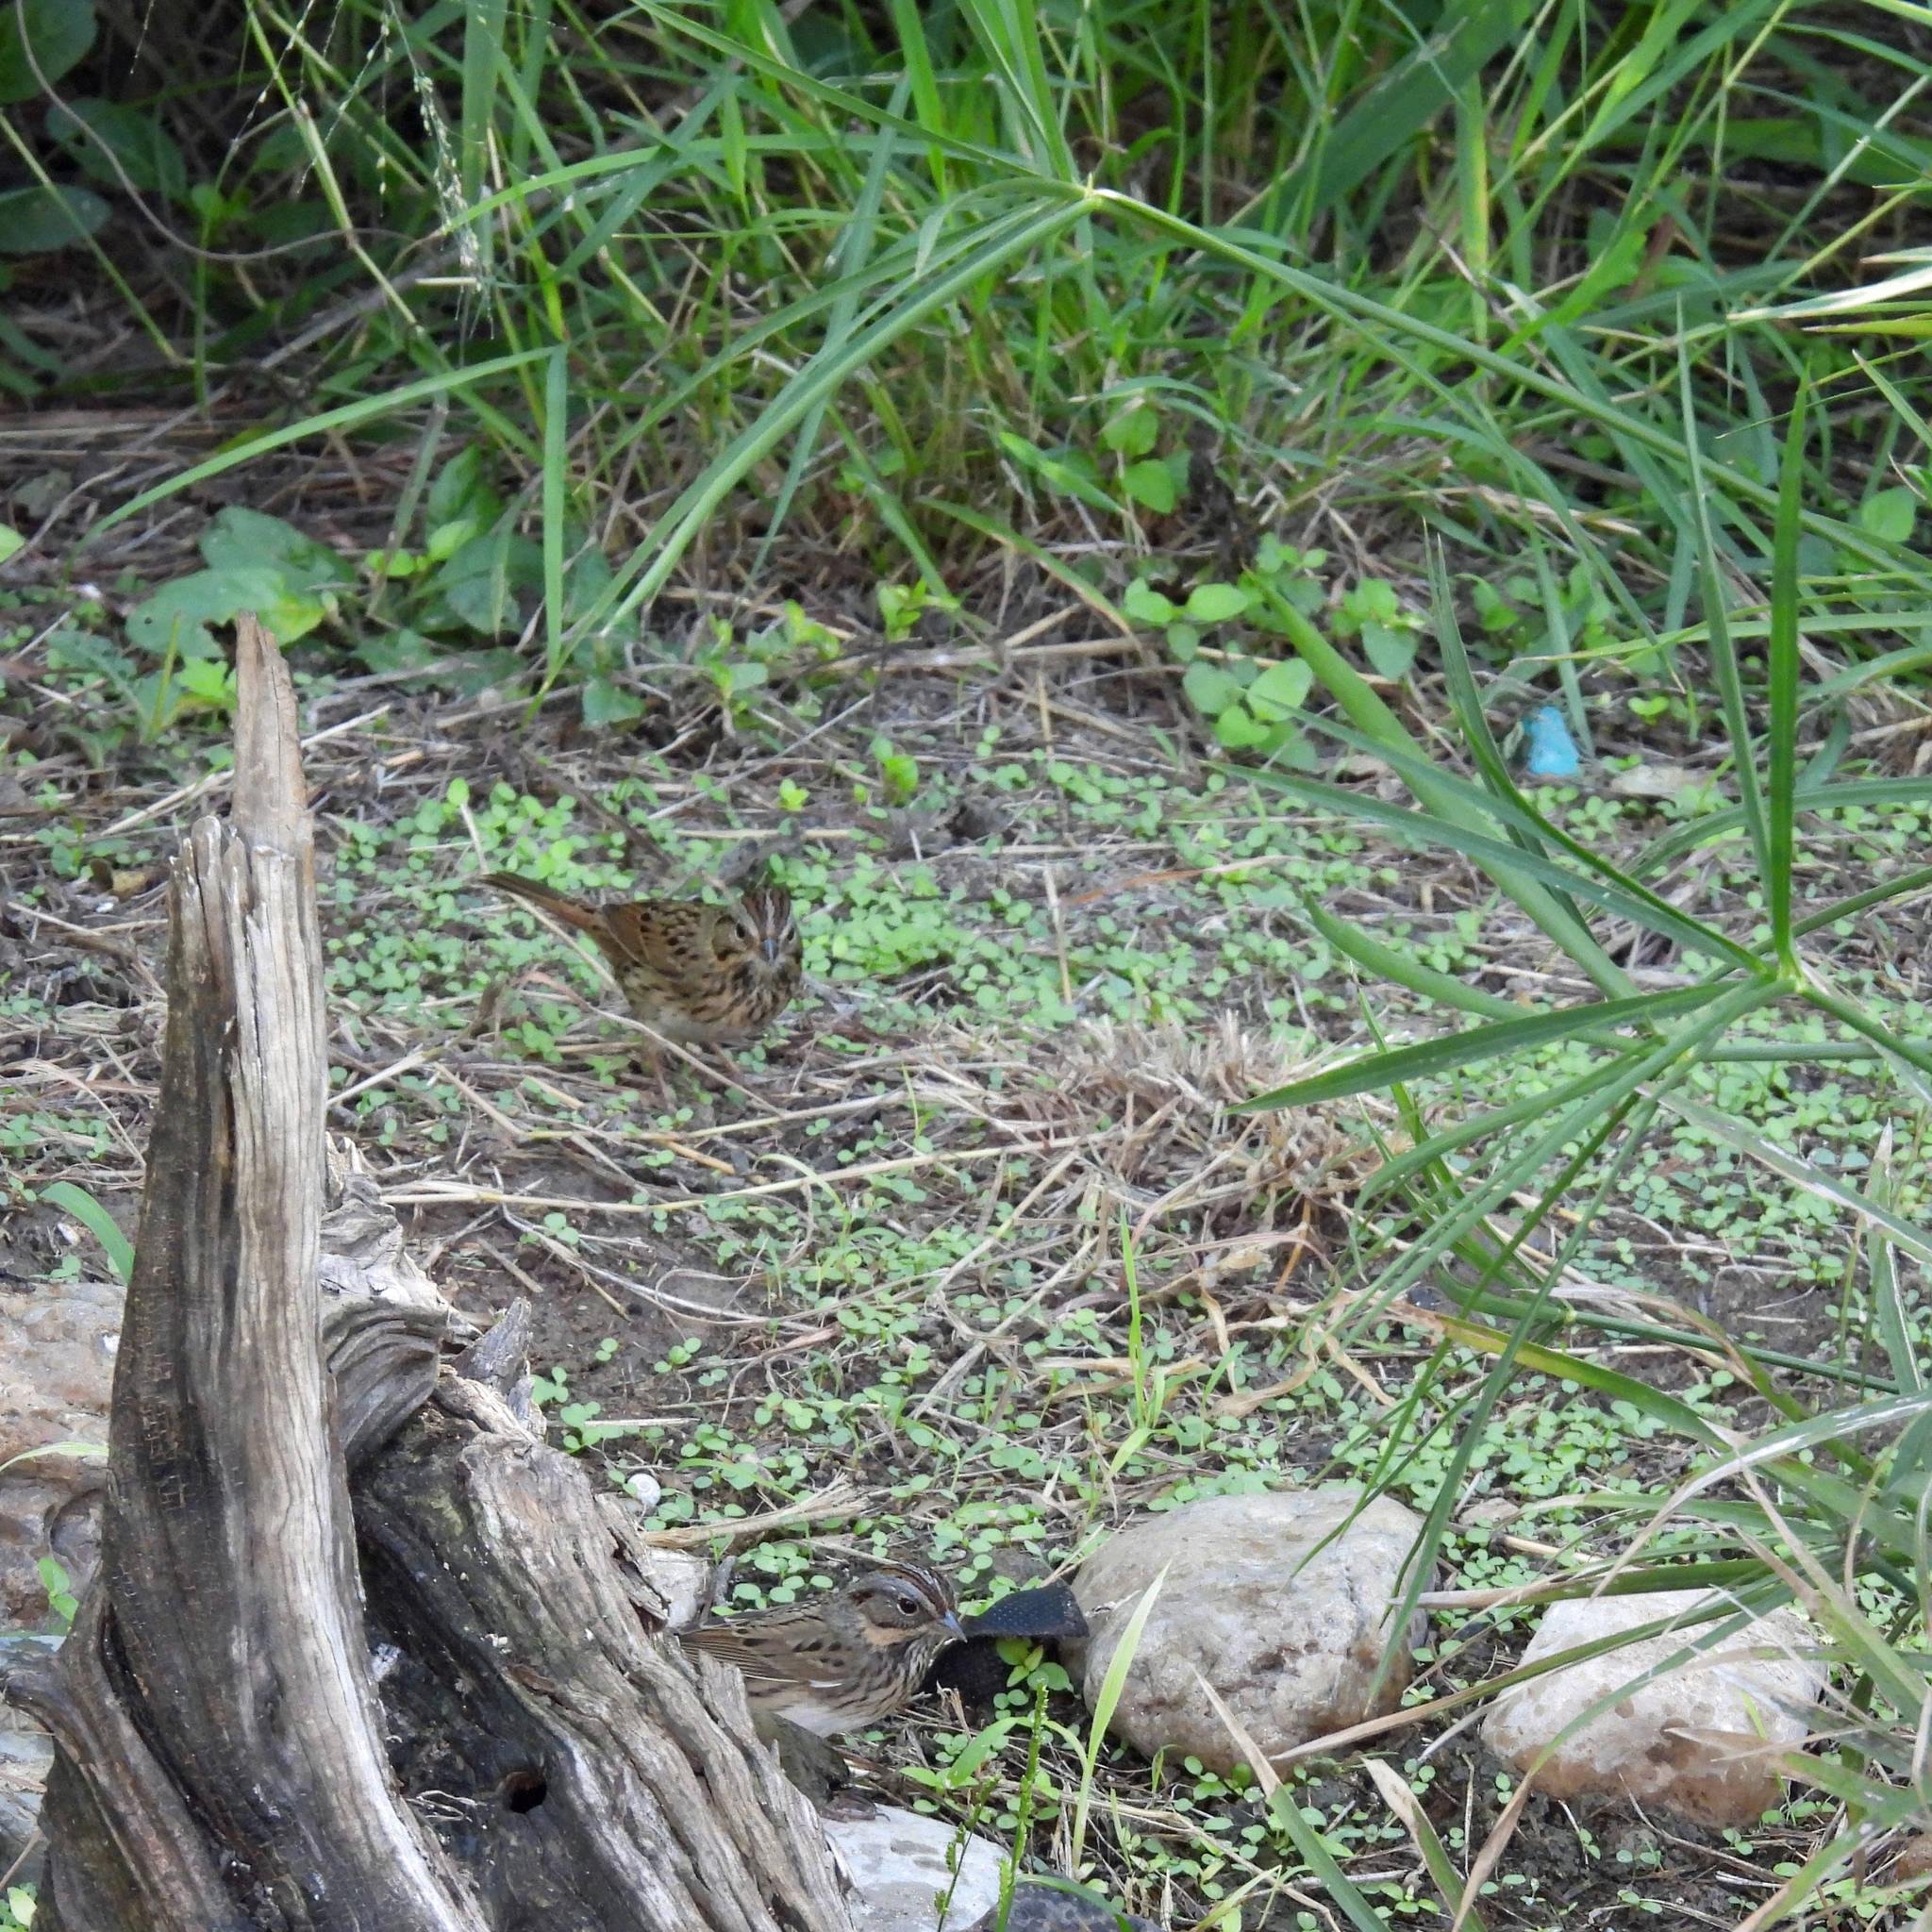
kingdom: Animalia
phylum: Chordata
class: Aves
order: Passeriformes
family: Passerellidae
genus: Melospiza
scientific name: Melospiza lincolnii
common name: Lincoln's sparrow
